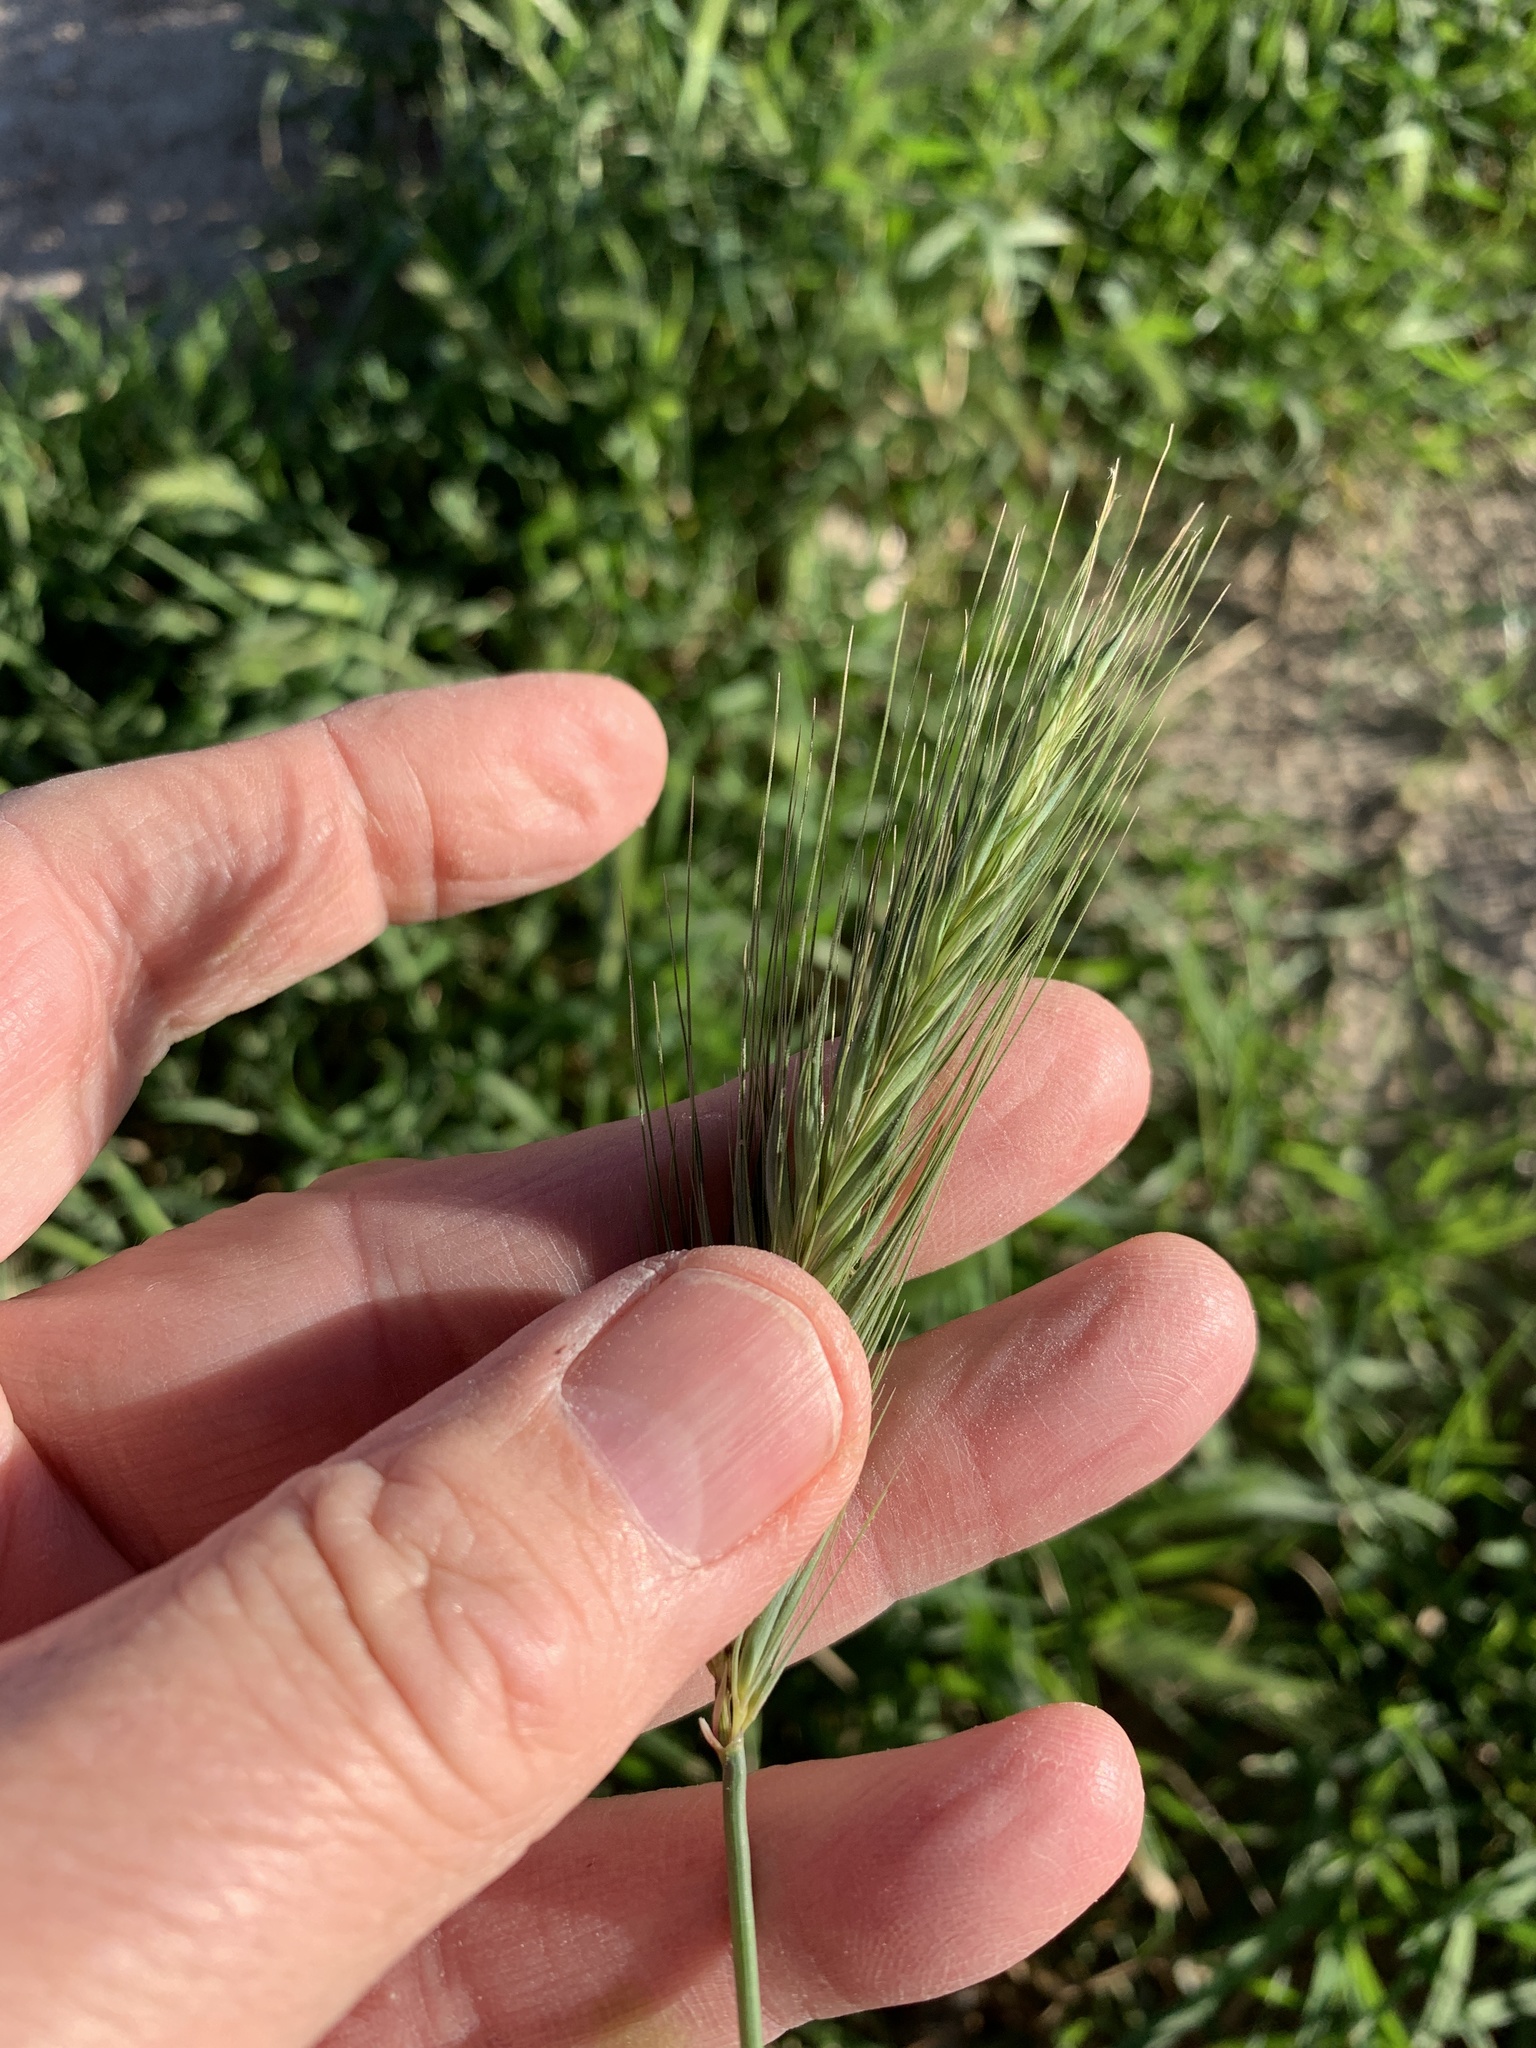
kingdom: Plantae
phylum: Tracheophyta
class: Liliopsida
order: Poales
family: Poaceae
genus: Hordeum
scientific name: Hordeum murinum
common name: Wall barley
